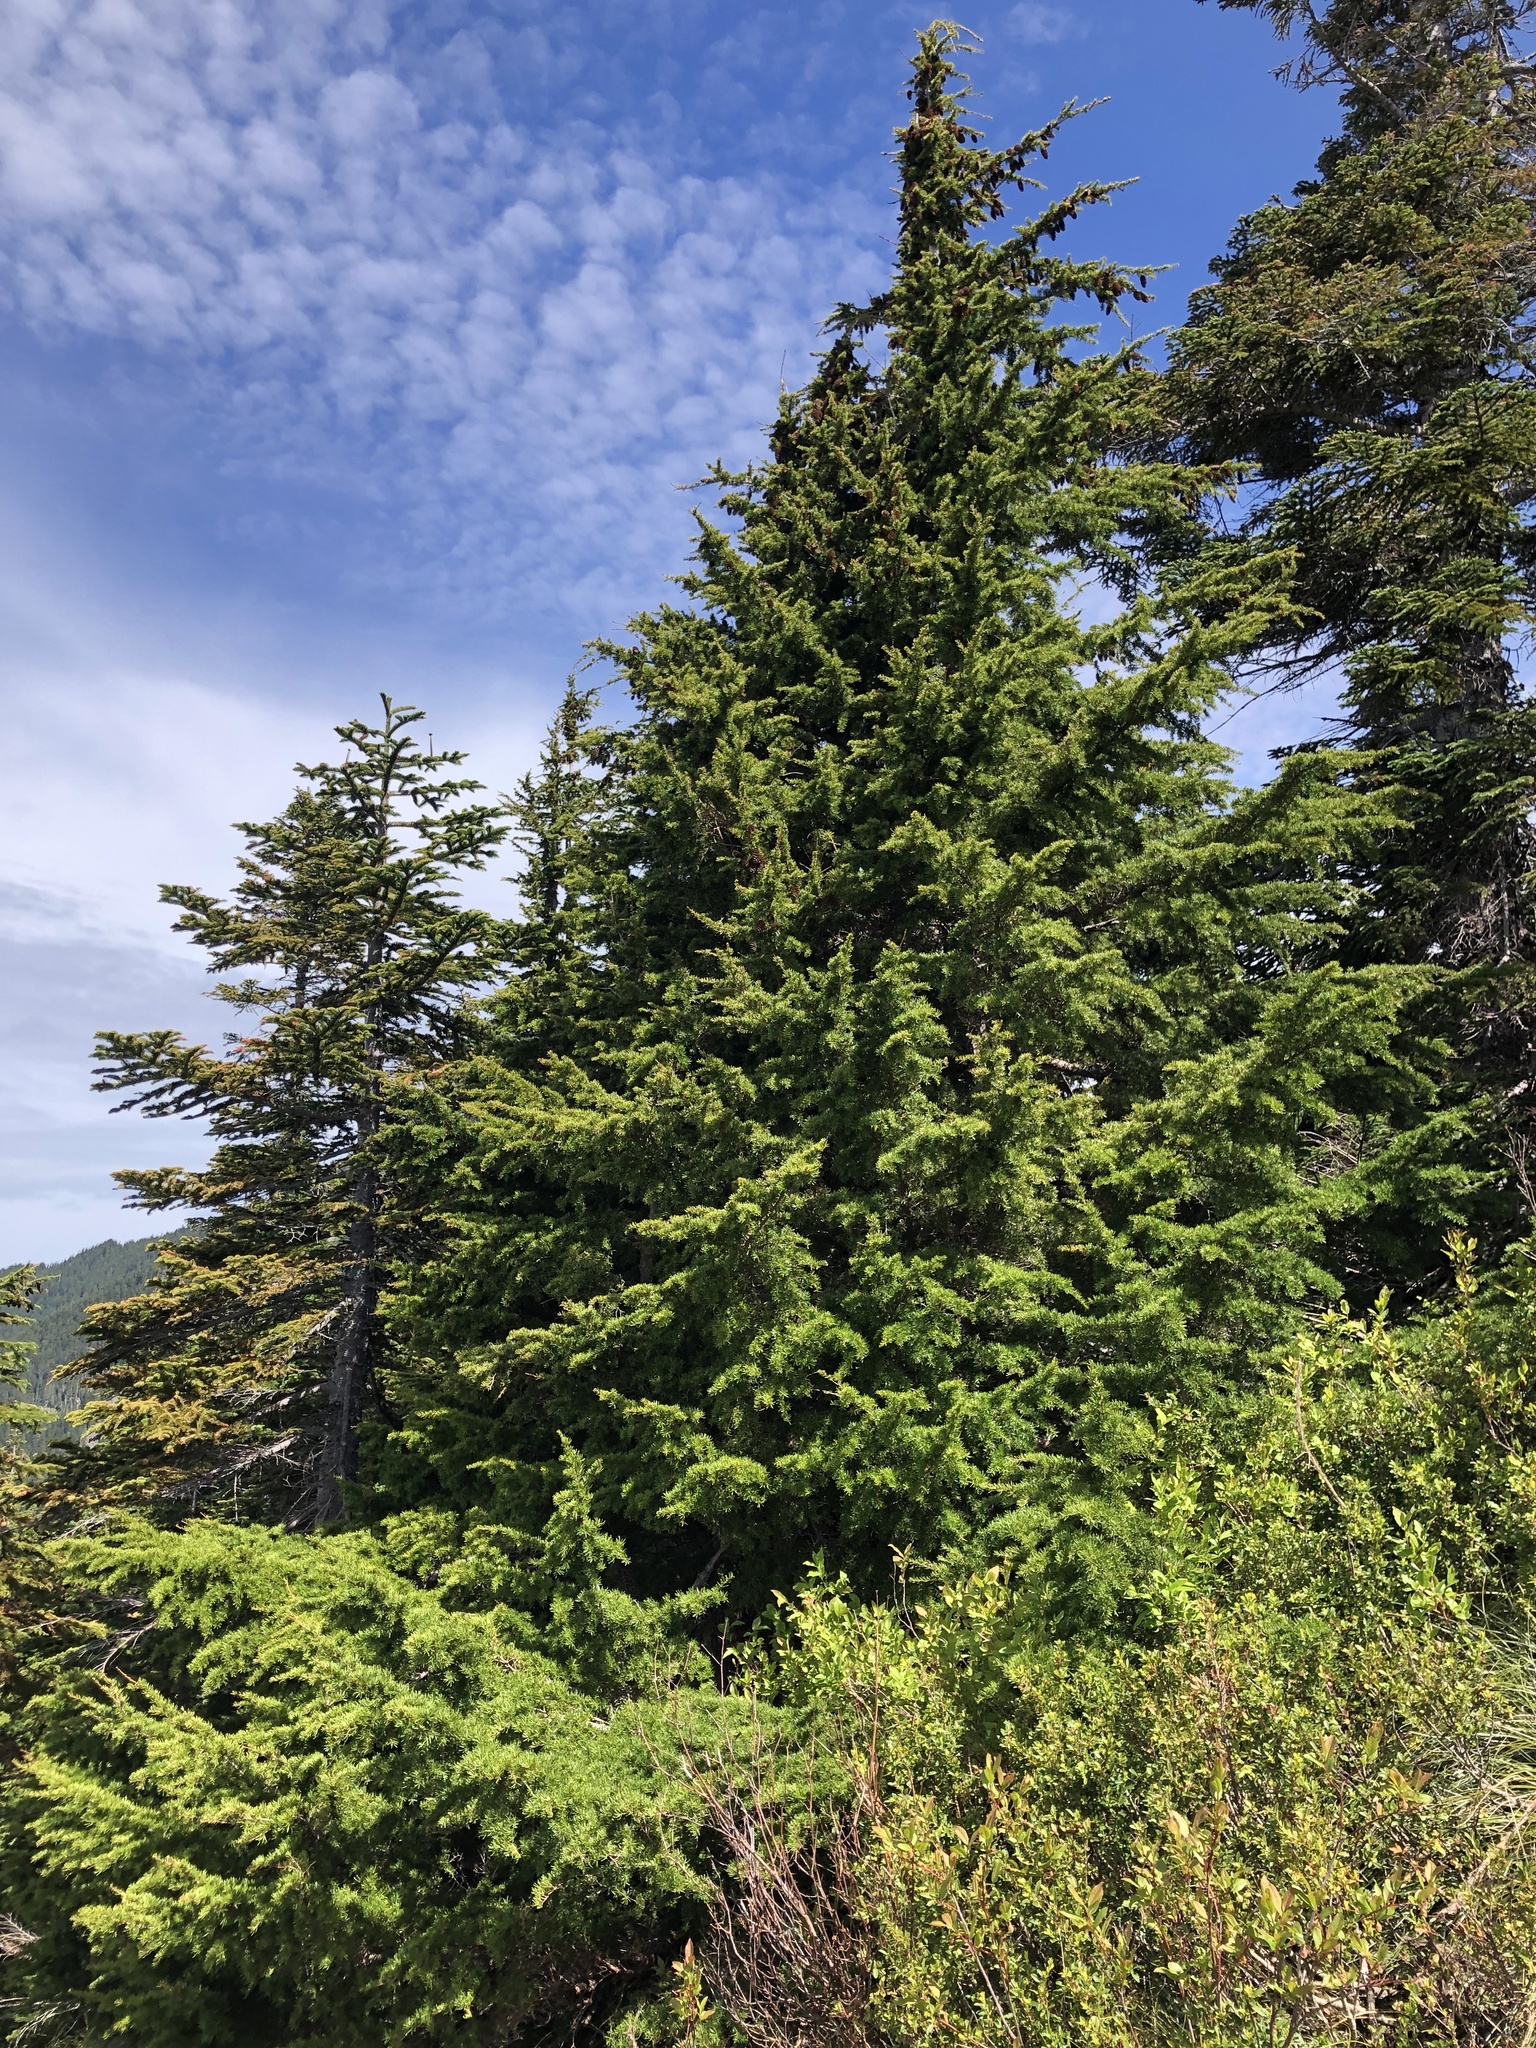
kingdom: Plantae
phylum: Tracheophyta
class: Pinopsida
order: Pinales
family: Pinaceae
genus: Tsuga
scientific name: Tsuga mertensiana
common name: Mountain hemlock
